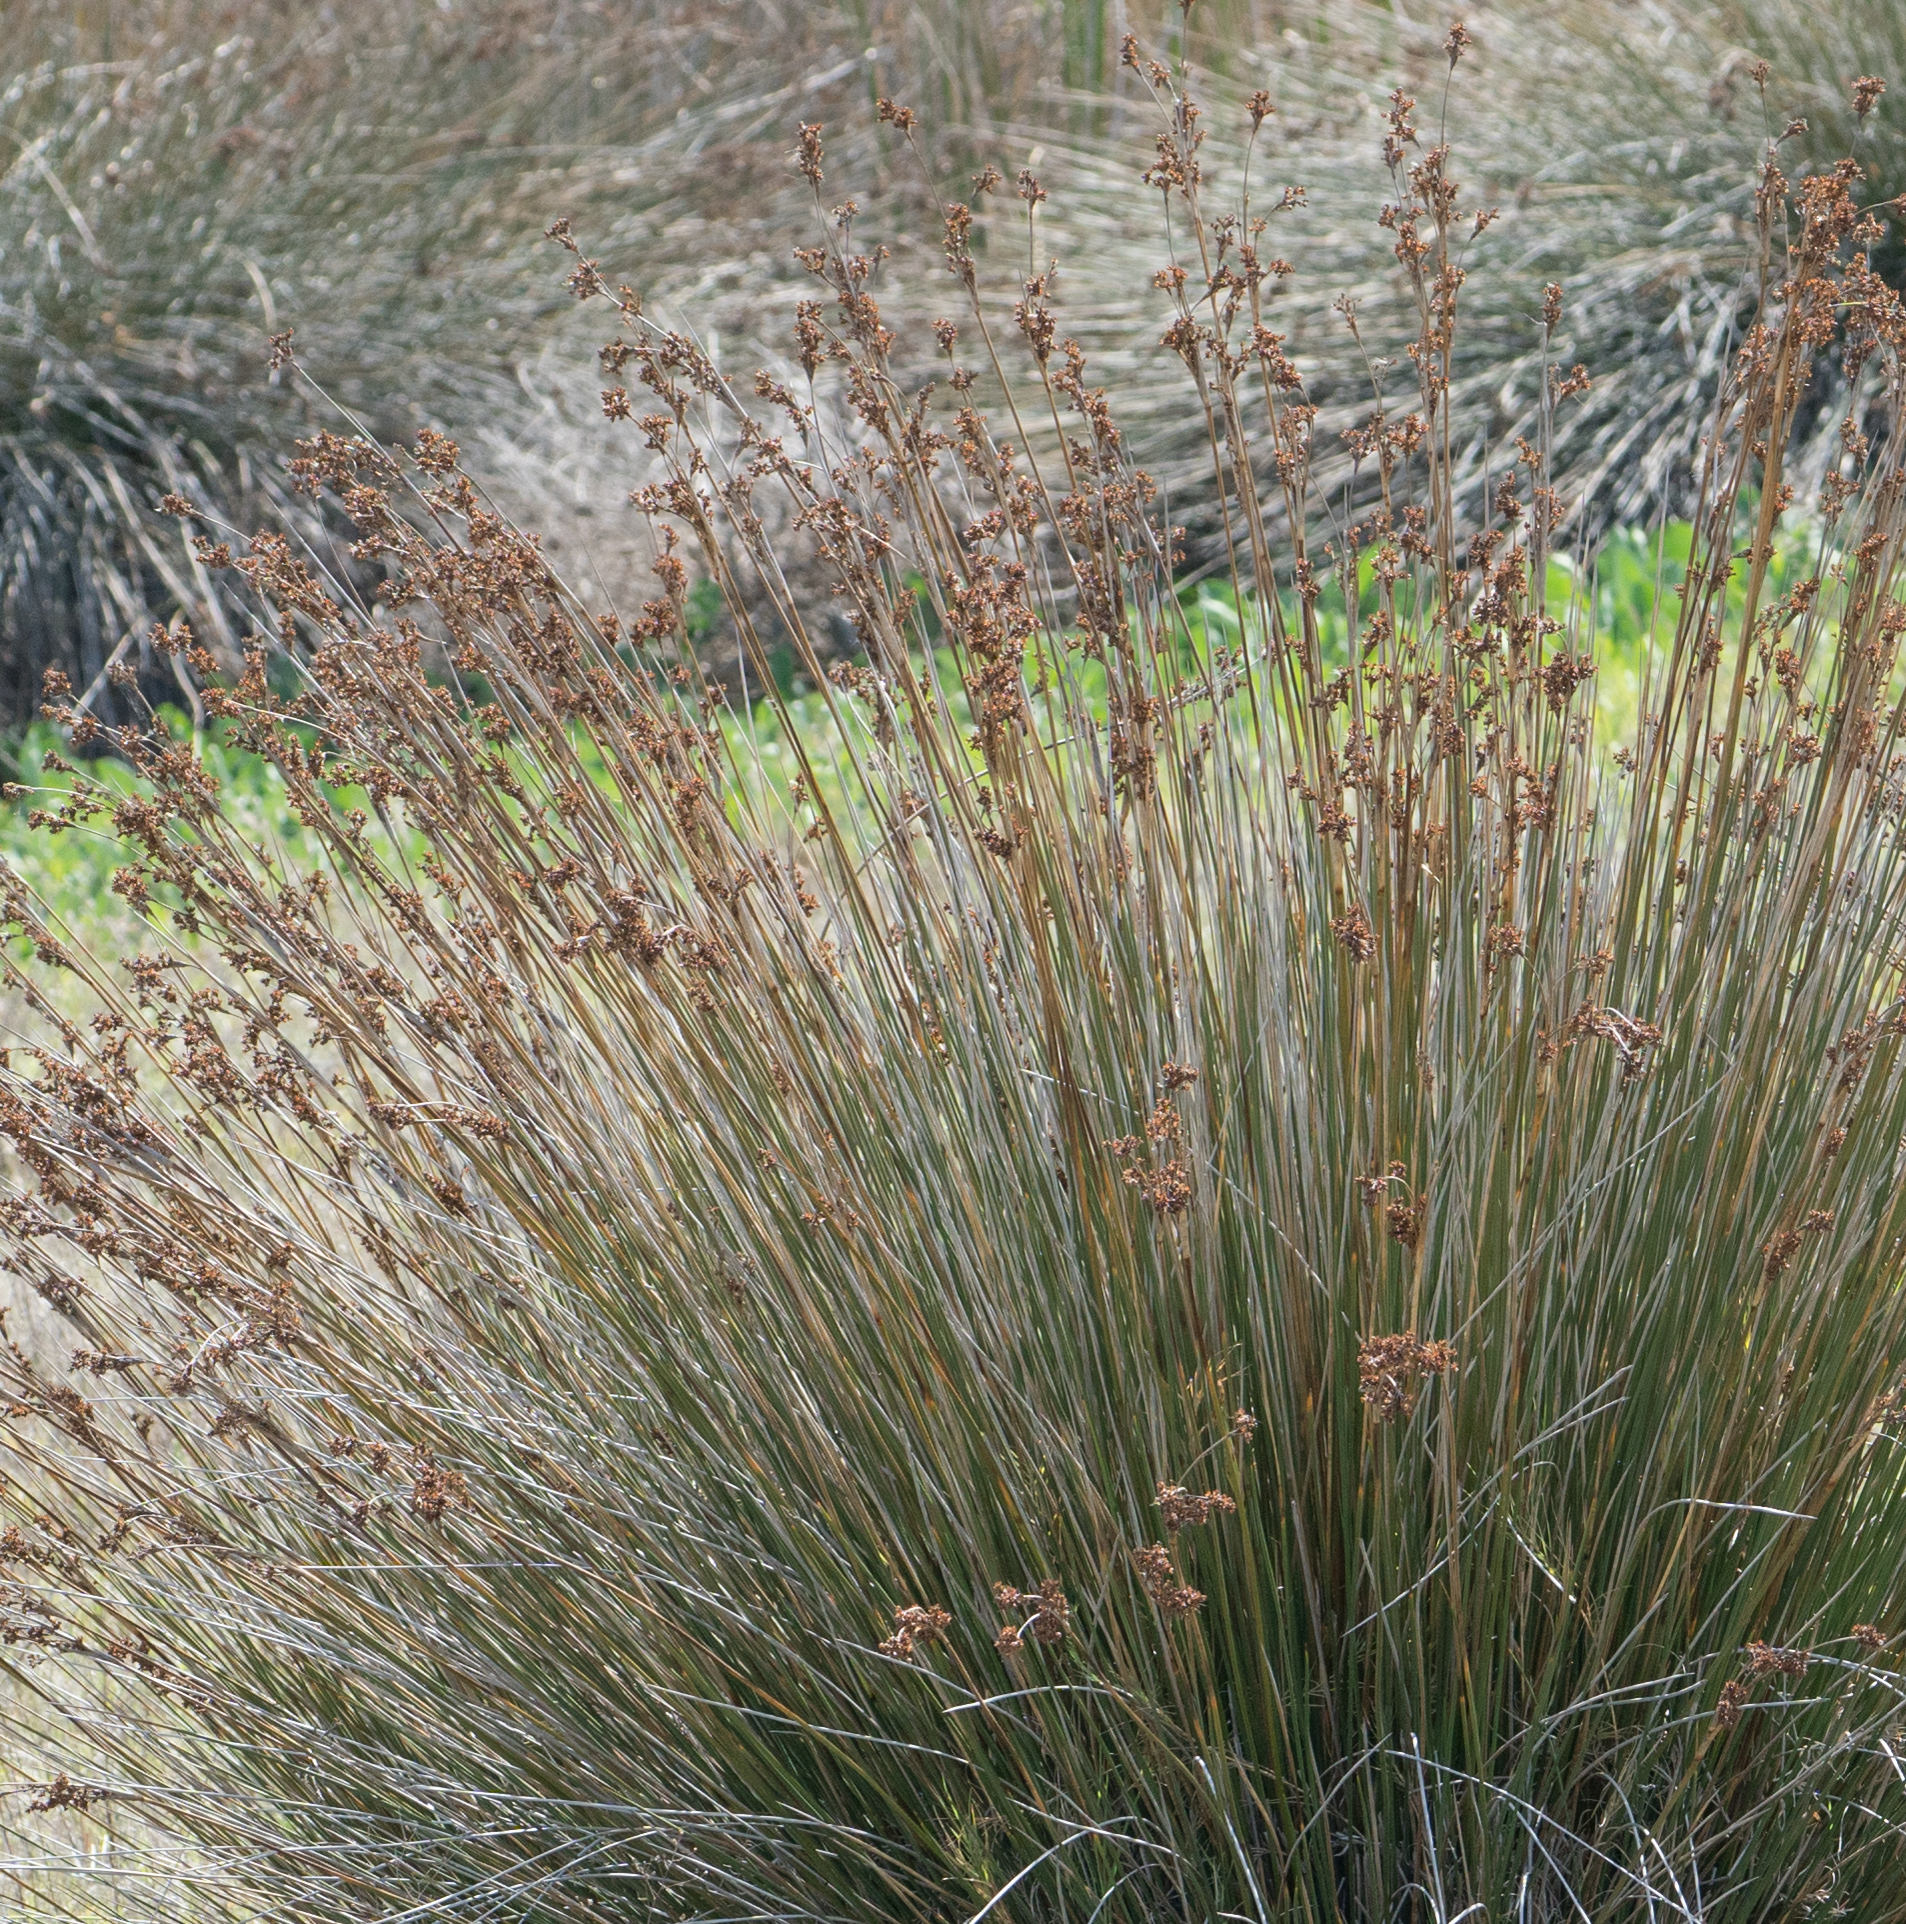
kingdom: Plantae
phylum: Tracheophyta
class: Liliopsida
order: Poales
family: Juncaceae
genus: Juncus
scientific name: Juncus acutus
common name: Sharp rush
